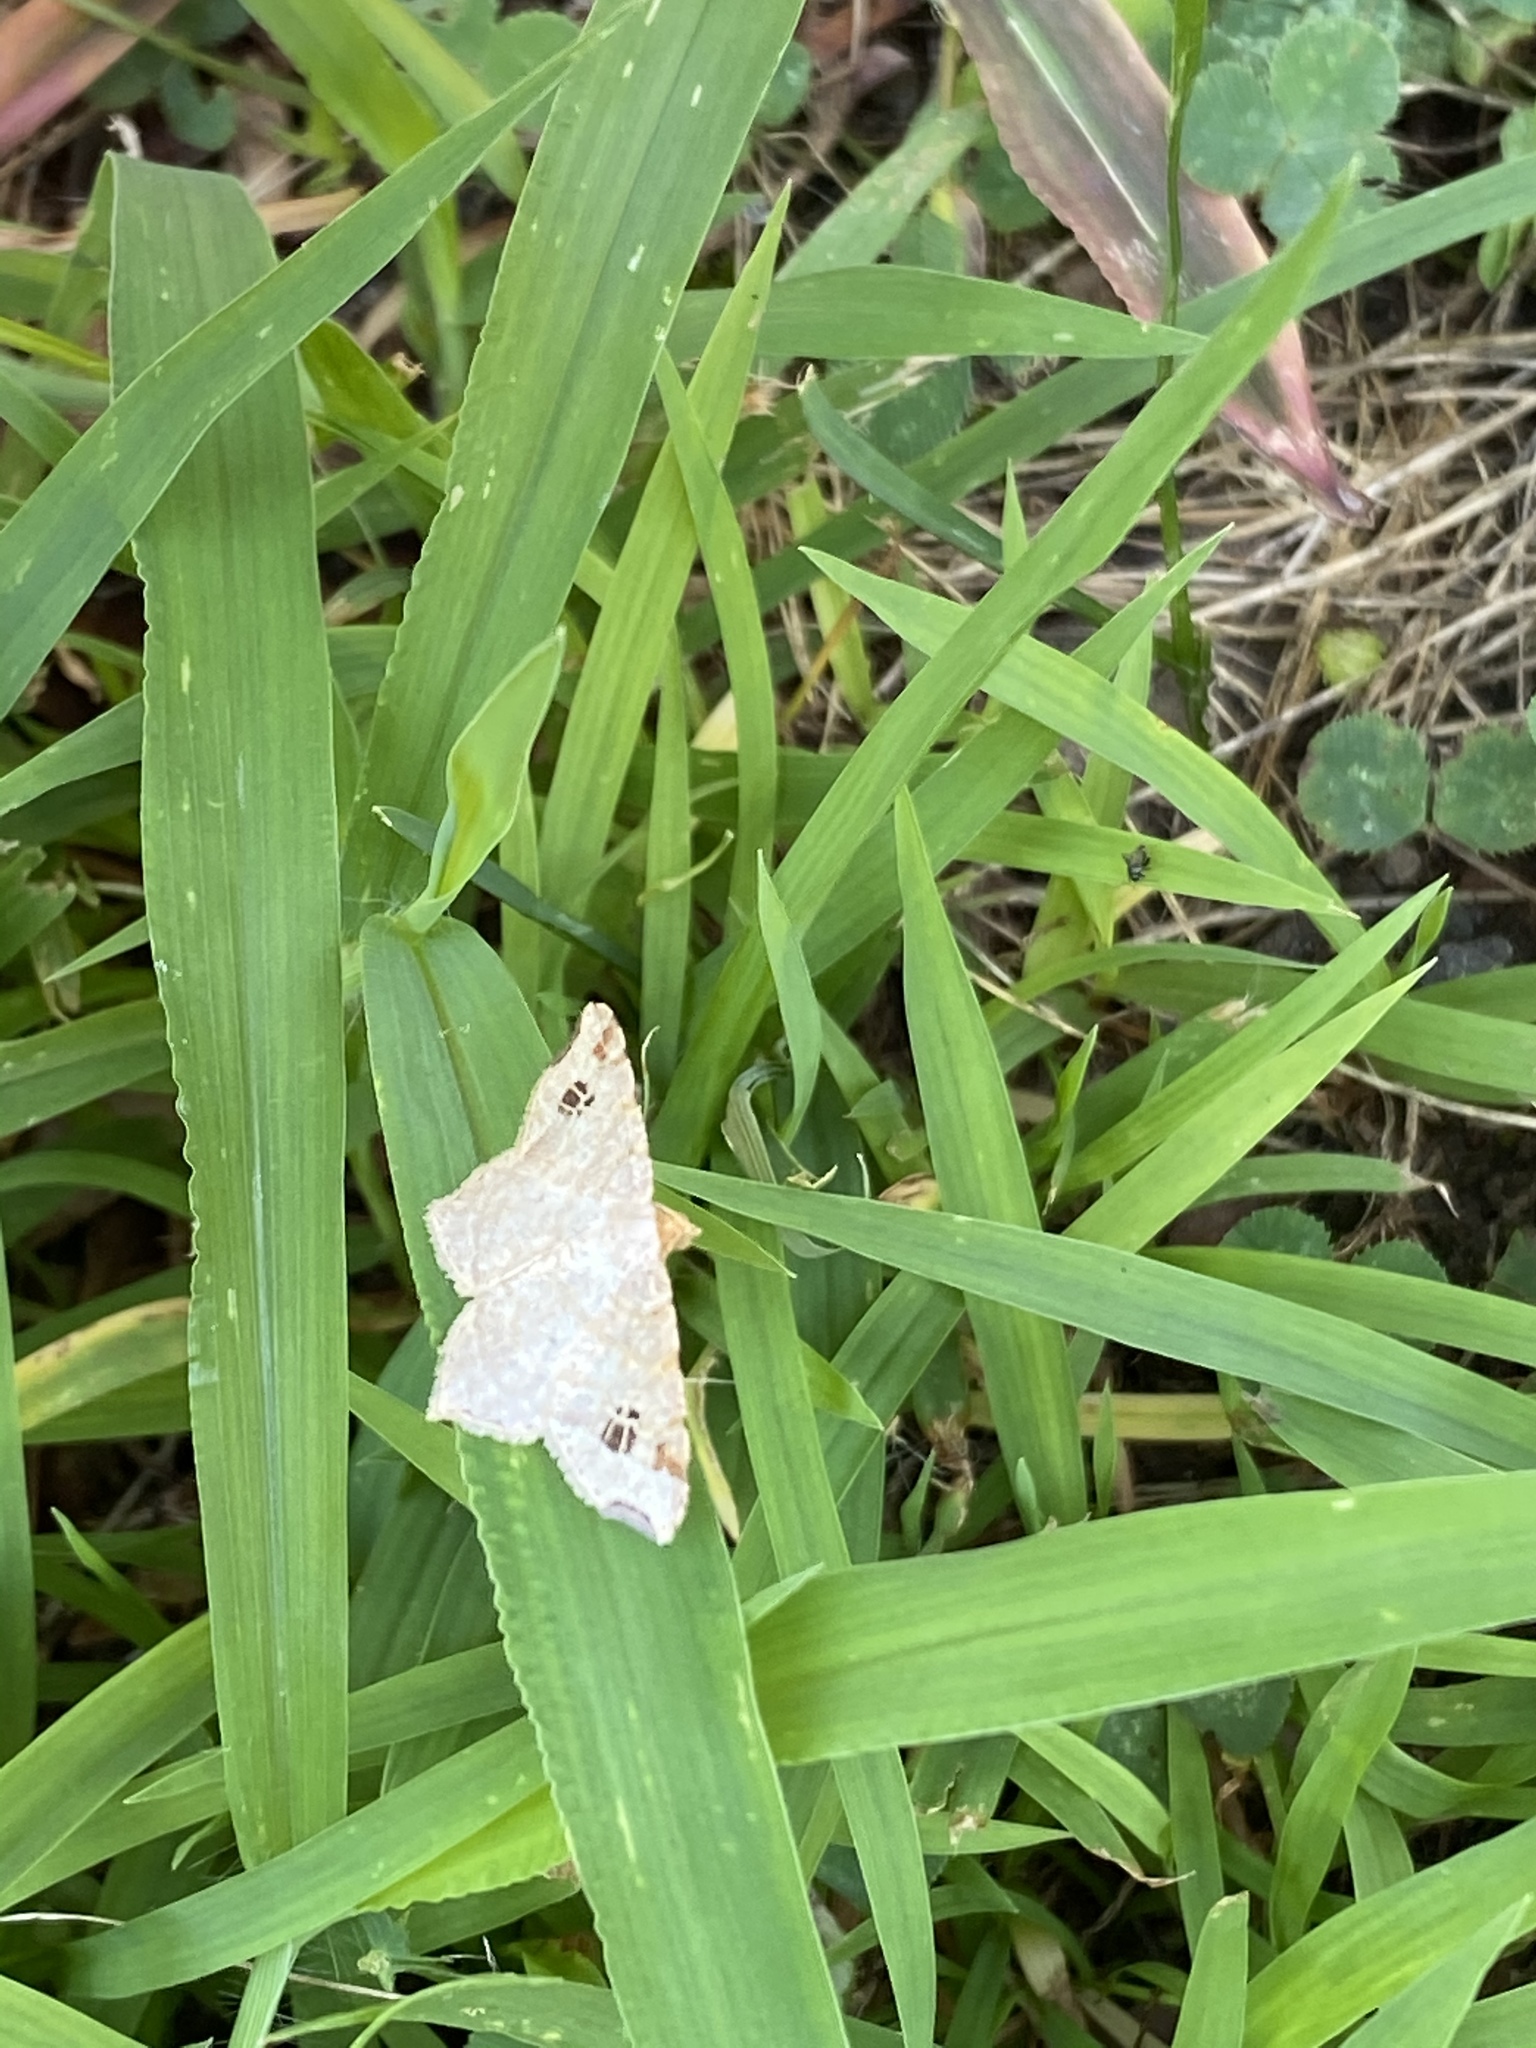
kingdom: Animalia
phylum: Arthropoda
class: Insecta
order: Lepidoptera
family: Geometridae
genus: Macaria
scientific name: Macaria aemulataria
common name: Common angle
